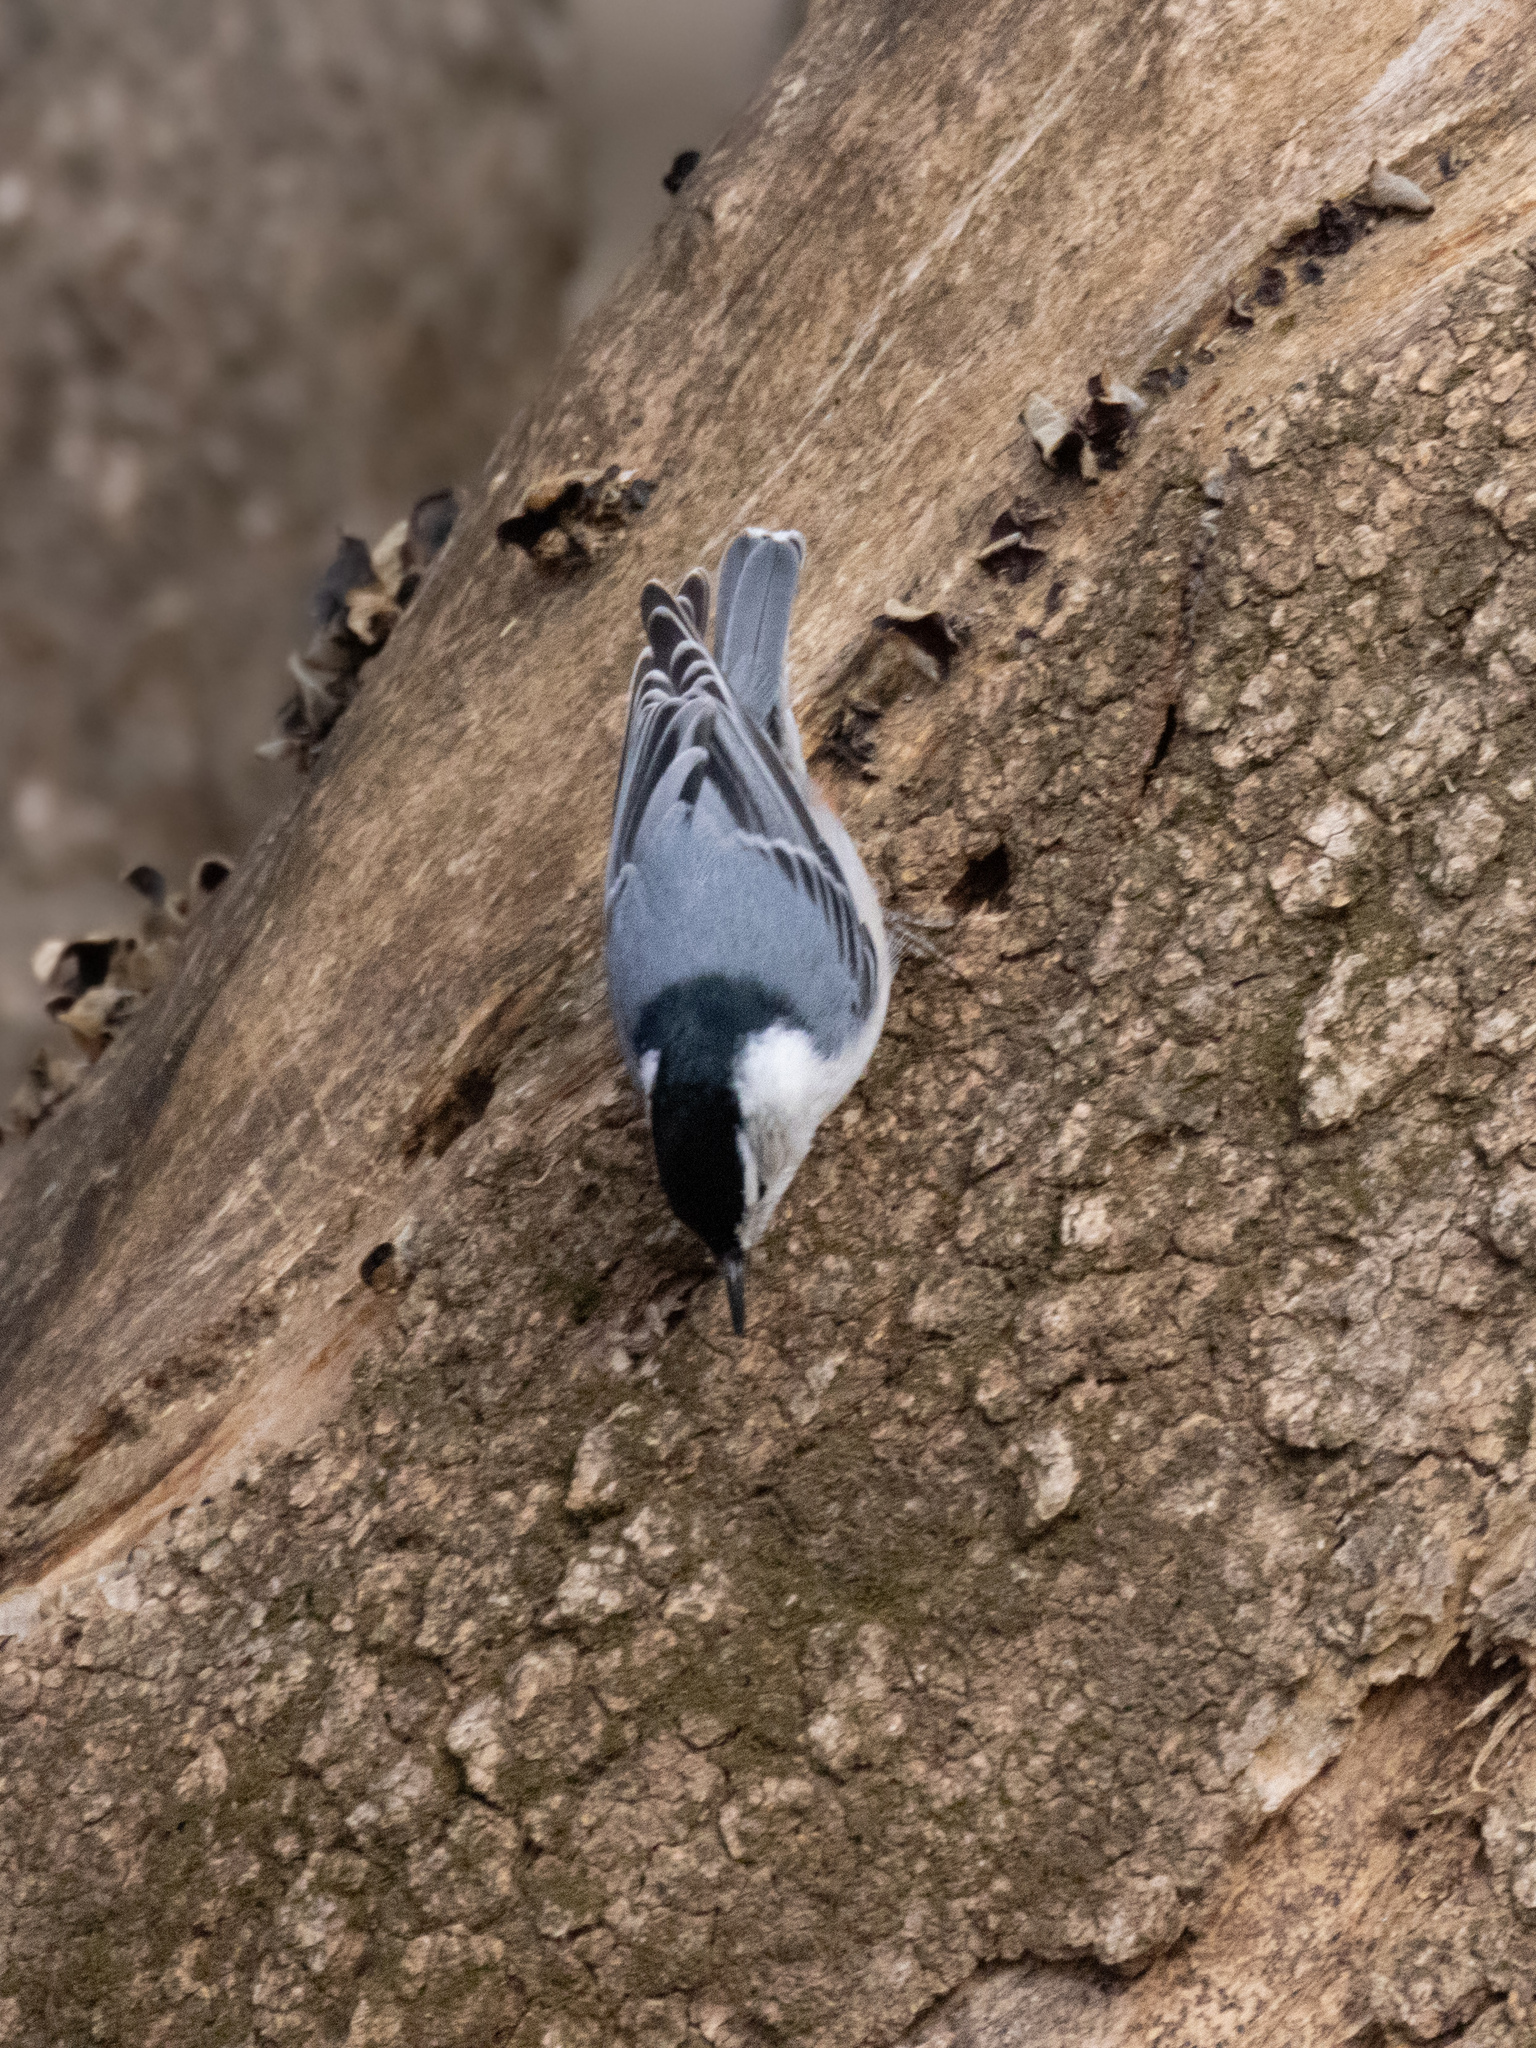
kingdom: Animalia
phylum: Chordata
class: Aves
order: Passeriformes
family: Sittidae
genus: Sitta
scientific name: Sitta carolinensis
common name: White-breasted nuthatch
